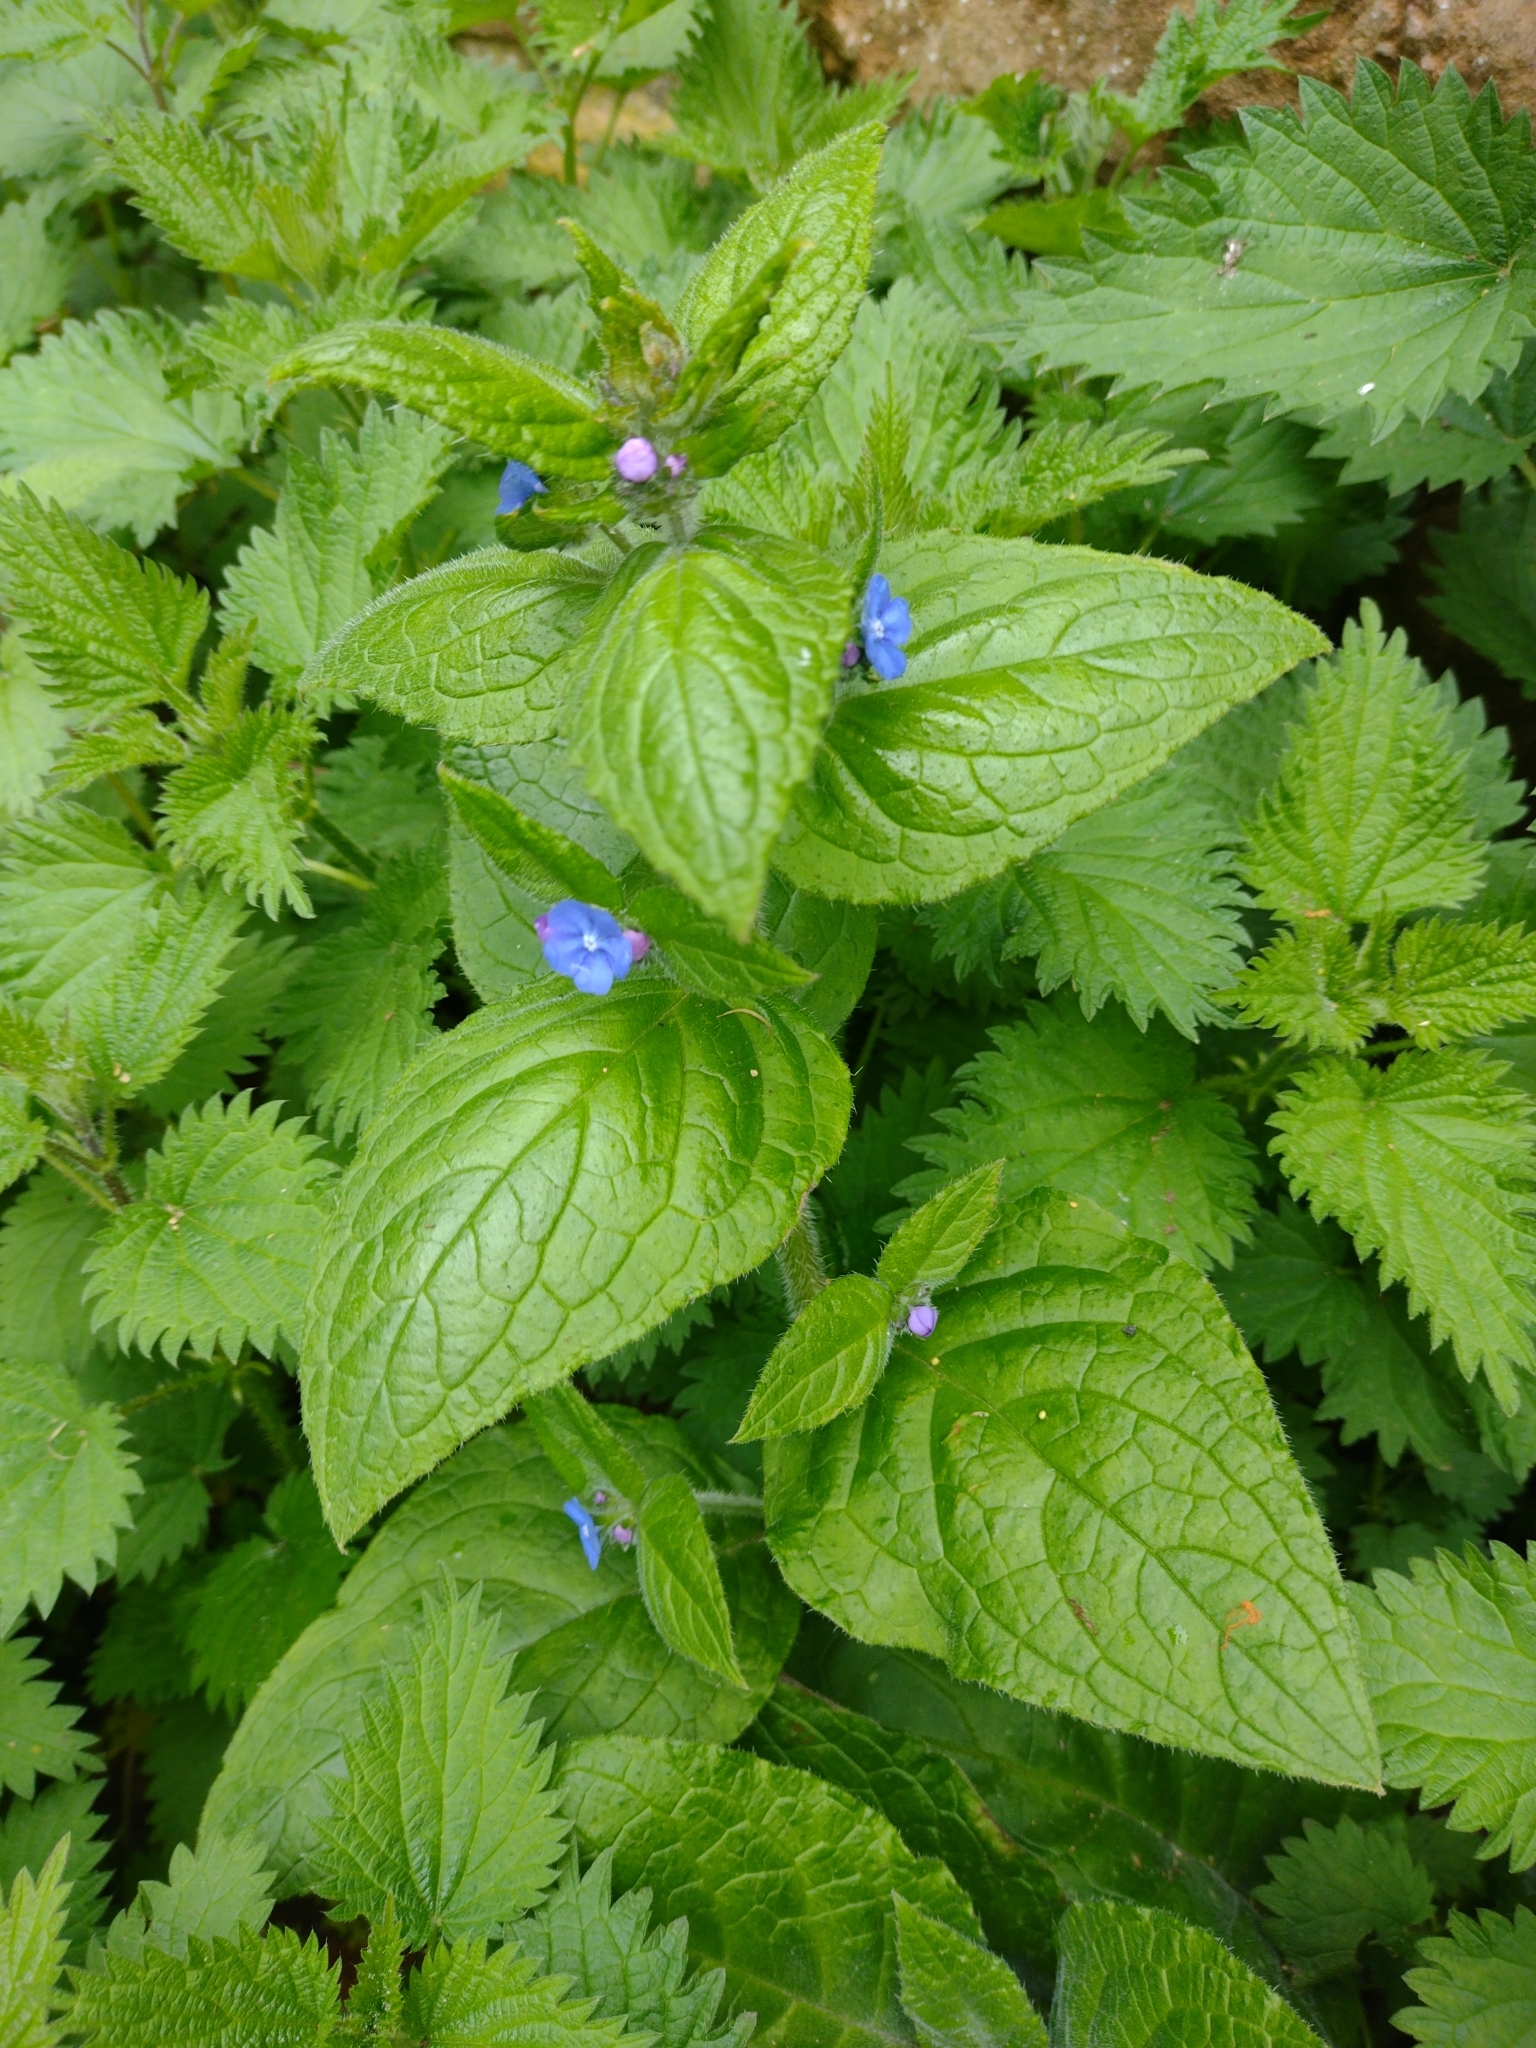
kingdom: Plantae
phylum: Tracheophyta
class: Magnoliopsida
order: Boraginales
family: Boraginaceae
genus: Pentaglottis
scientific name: Pentaglottis sempervirens
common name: Green alkanet
